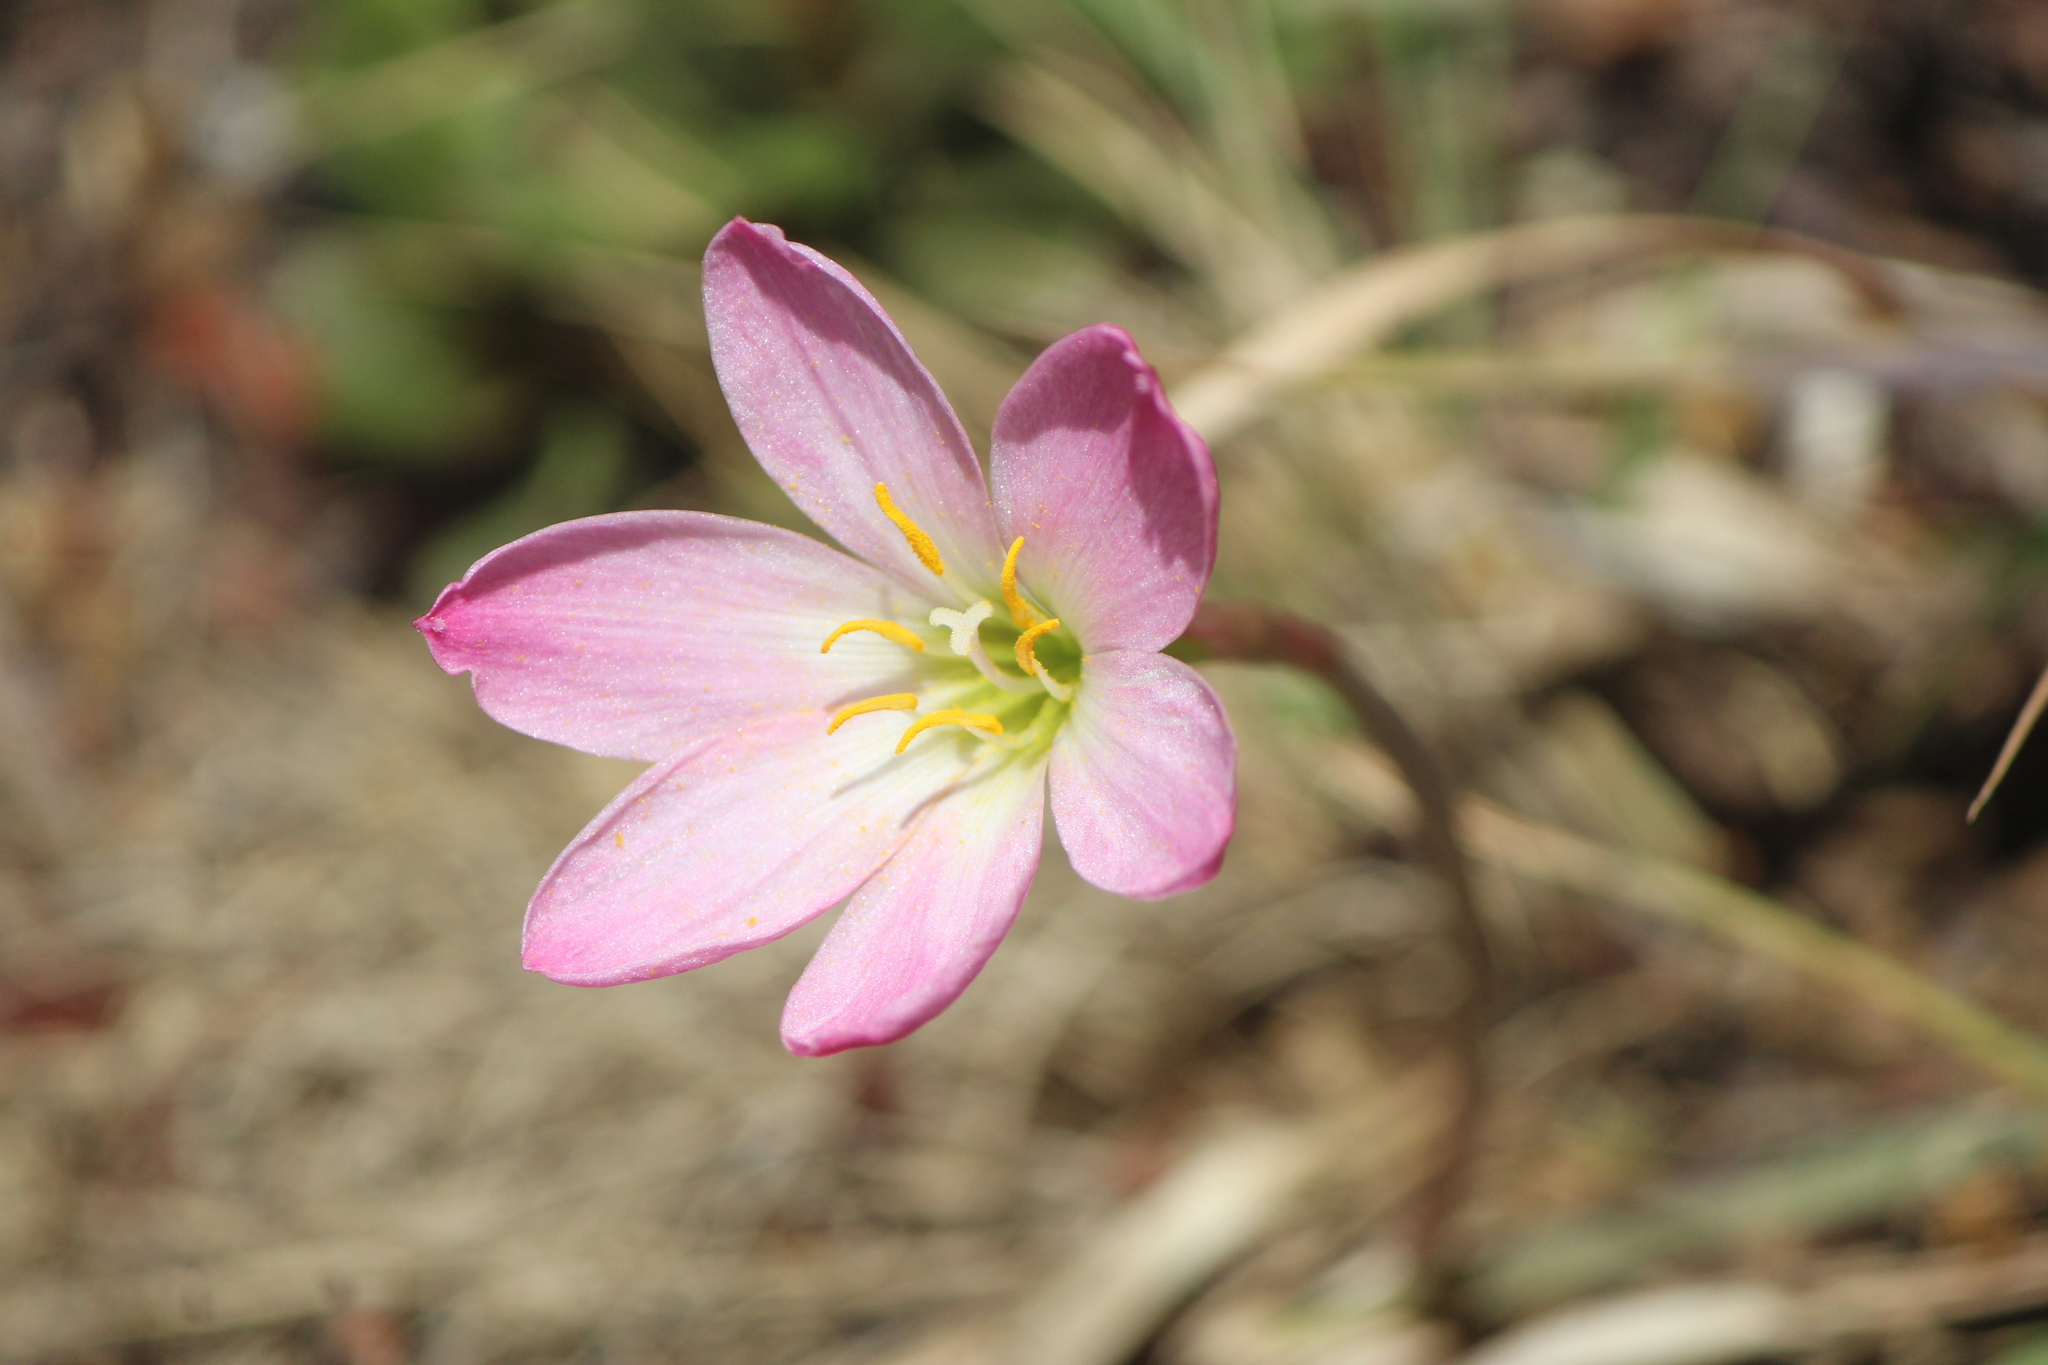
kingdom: Plantae
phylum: Tracheophyta
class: Liliopsida
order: Asparagales
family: Amaryllidaceae
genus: Zephyranthes
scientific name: Zephyranthes fosteri
